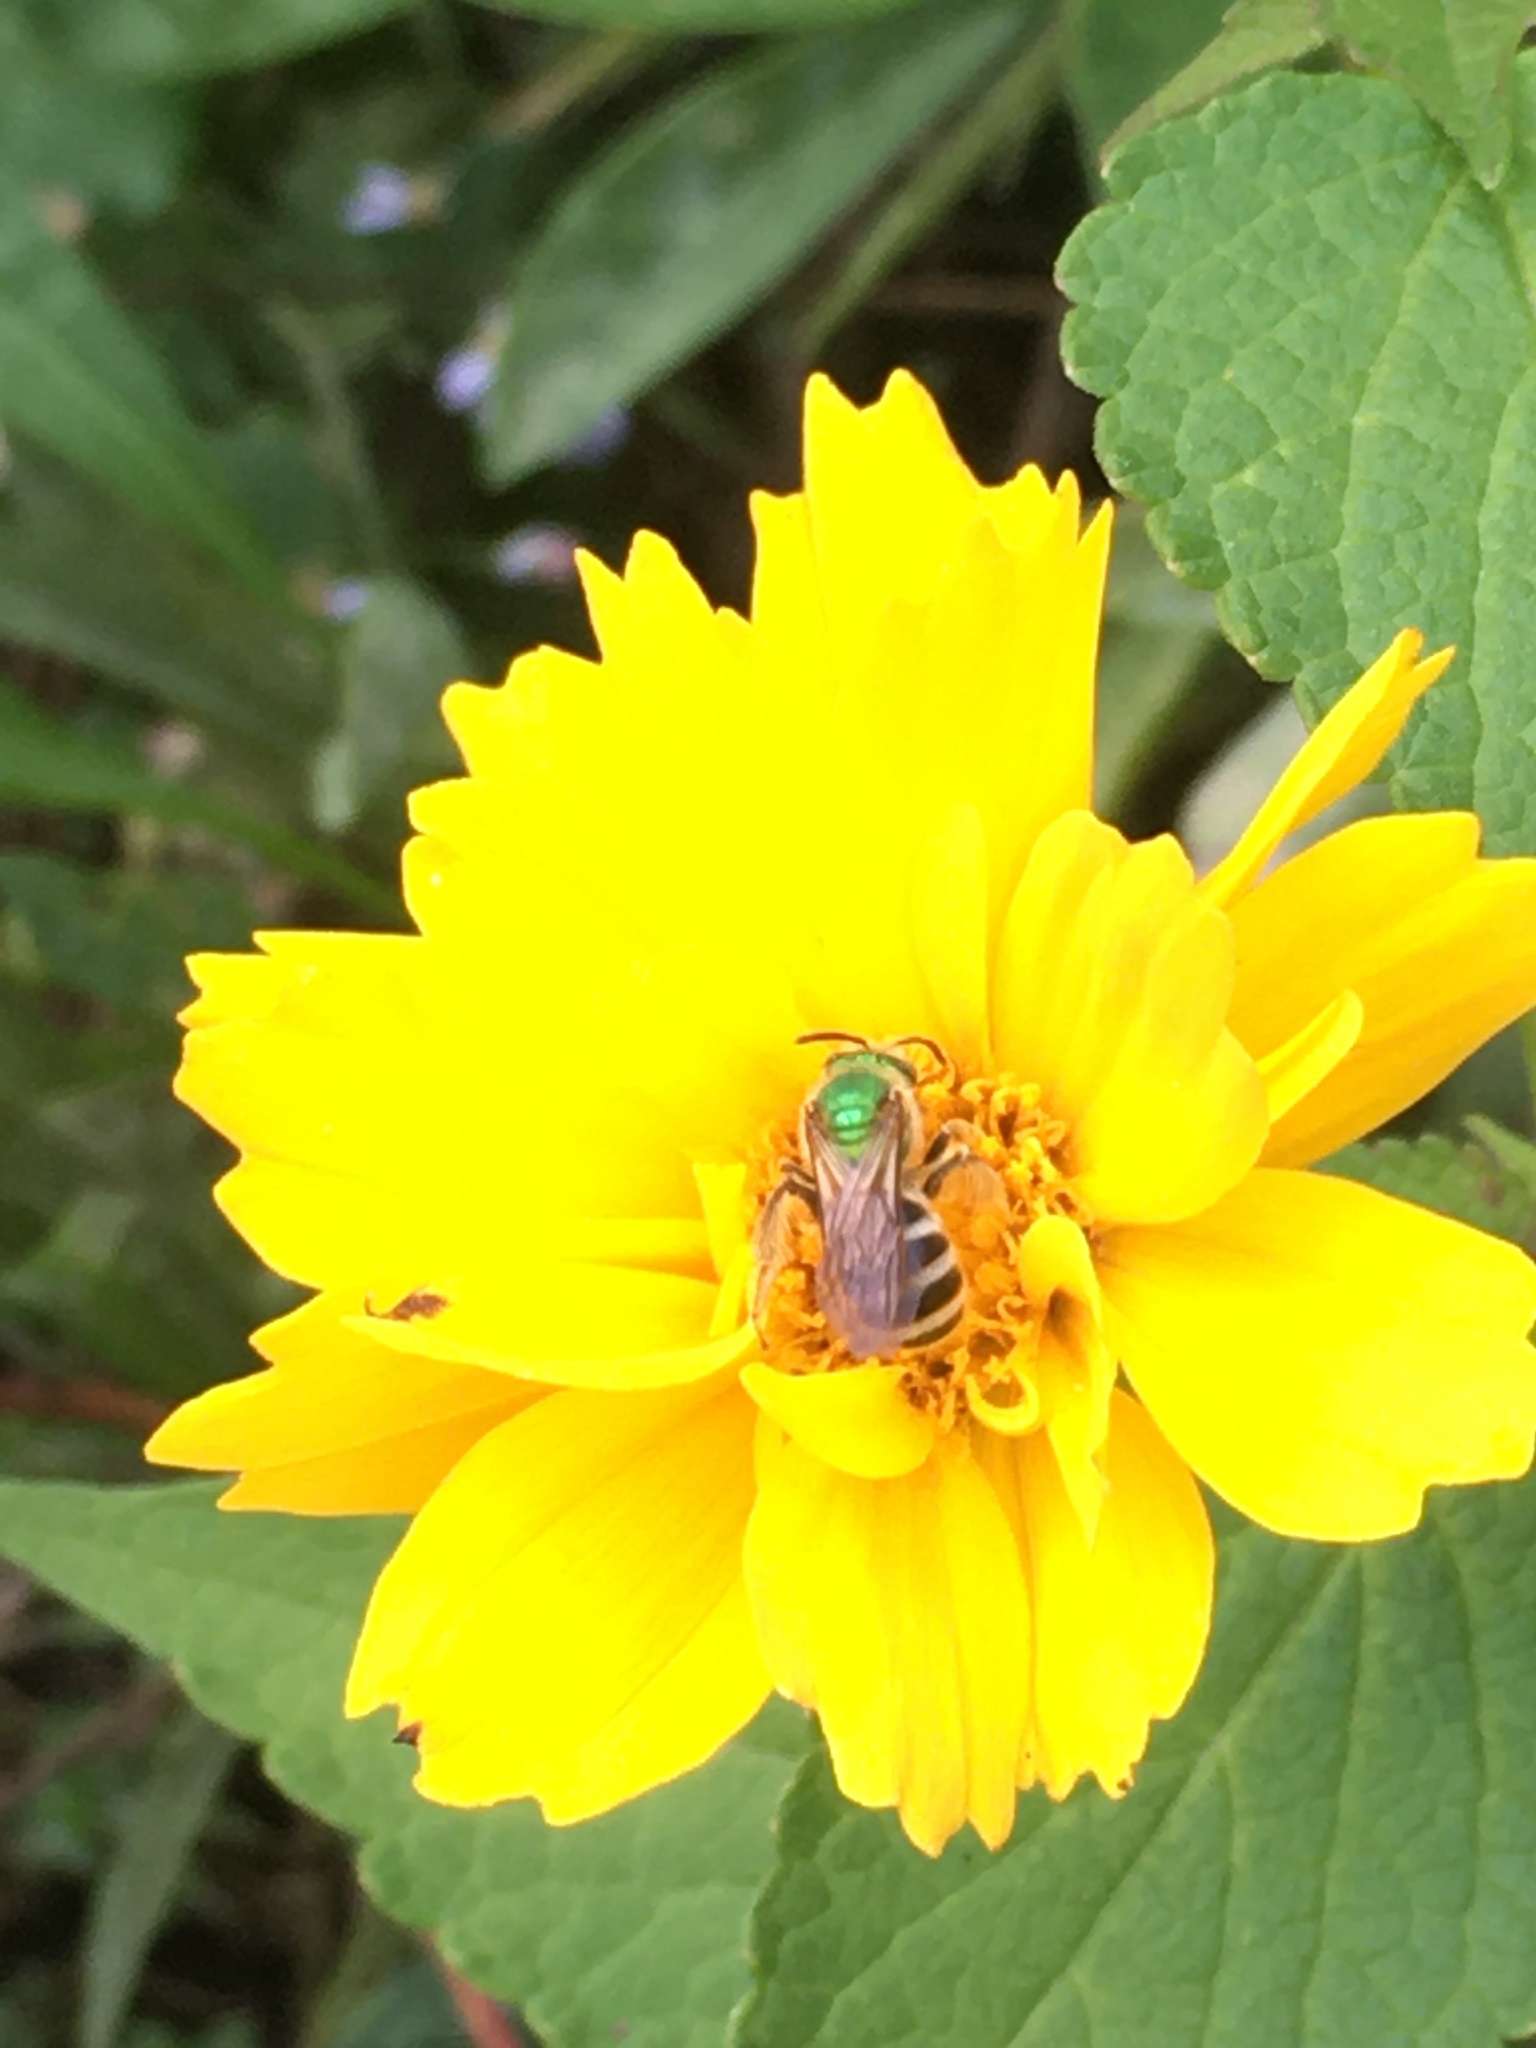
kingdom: Animalia
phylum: Arthropoda
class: Insecta
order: Hymenoptera
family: Halictidae
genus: Agapostemon
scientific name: Agapostemon virescens
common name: Bicolored striped sweat bee
